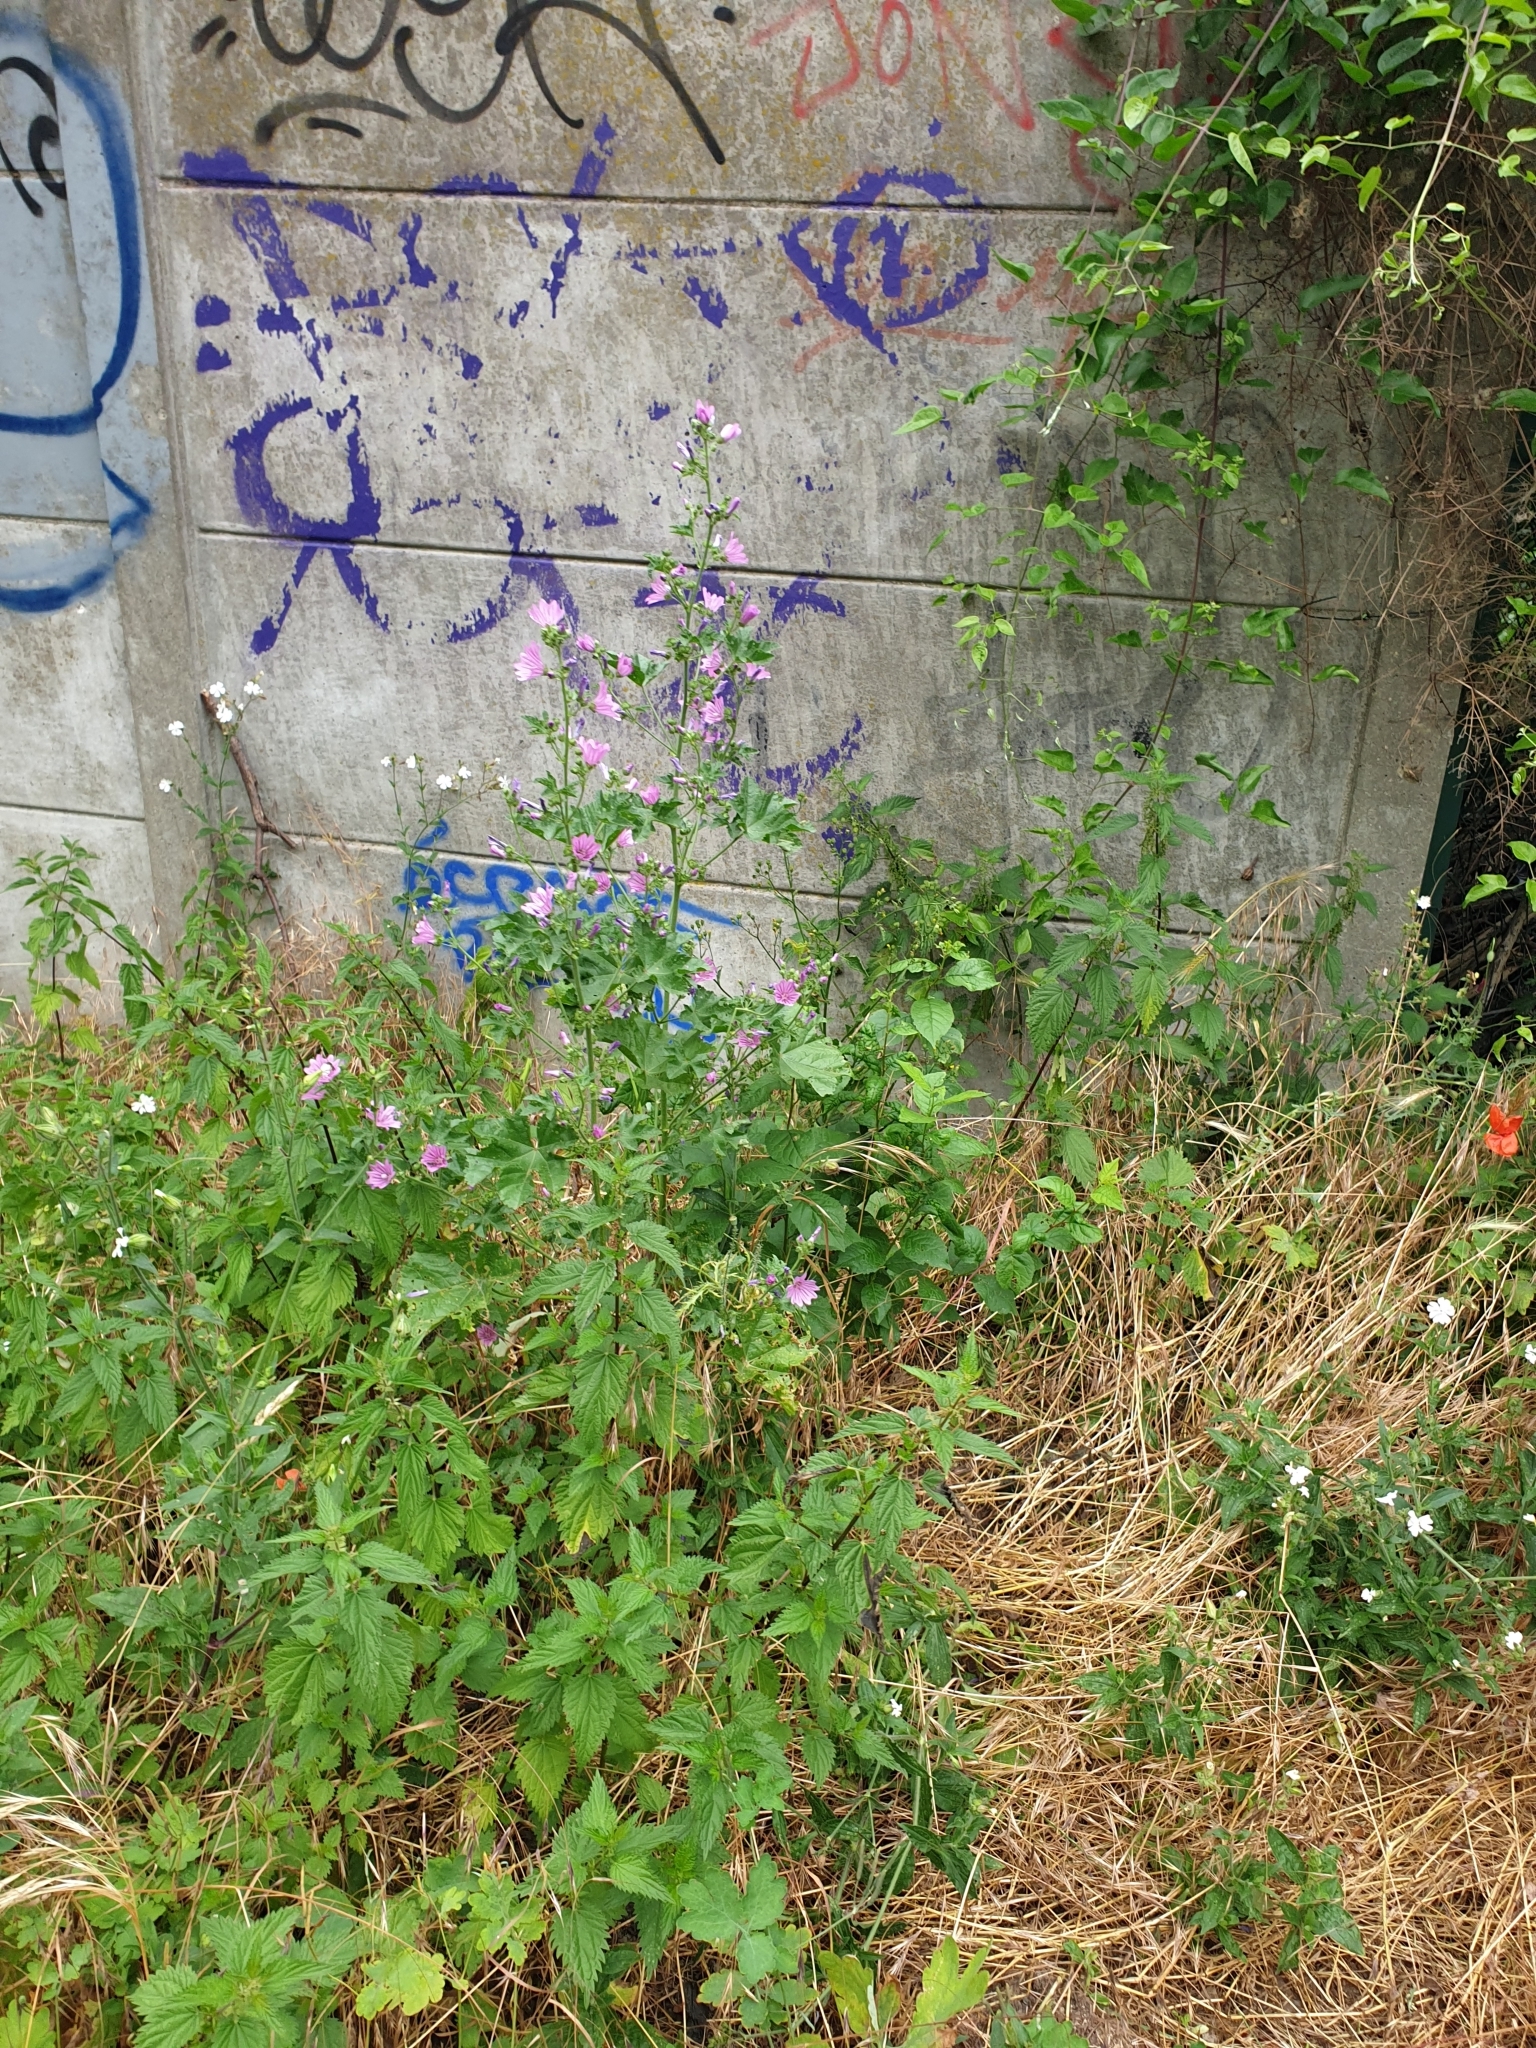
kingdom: Plantae
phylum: Tracheophyta
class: Magnoliopsida
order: Malvales
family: Malvaceae
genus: Malva
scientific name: Malva sylvestris
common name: Common mallow
